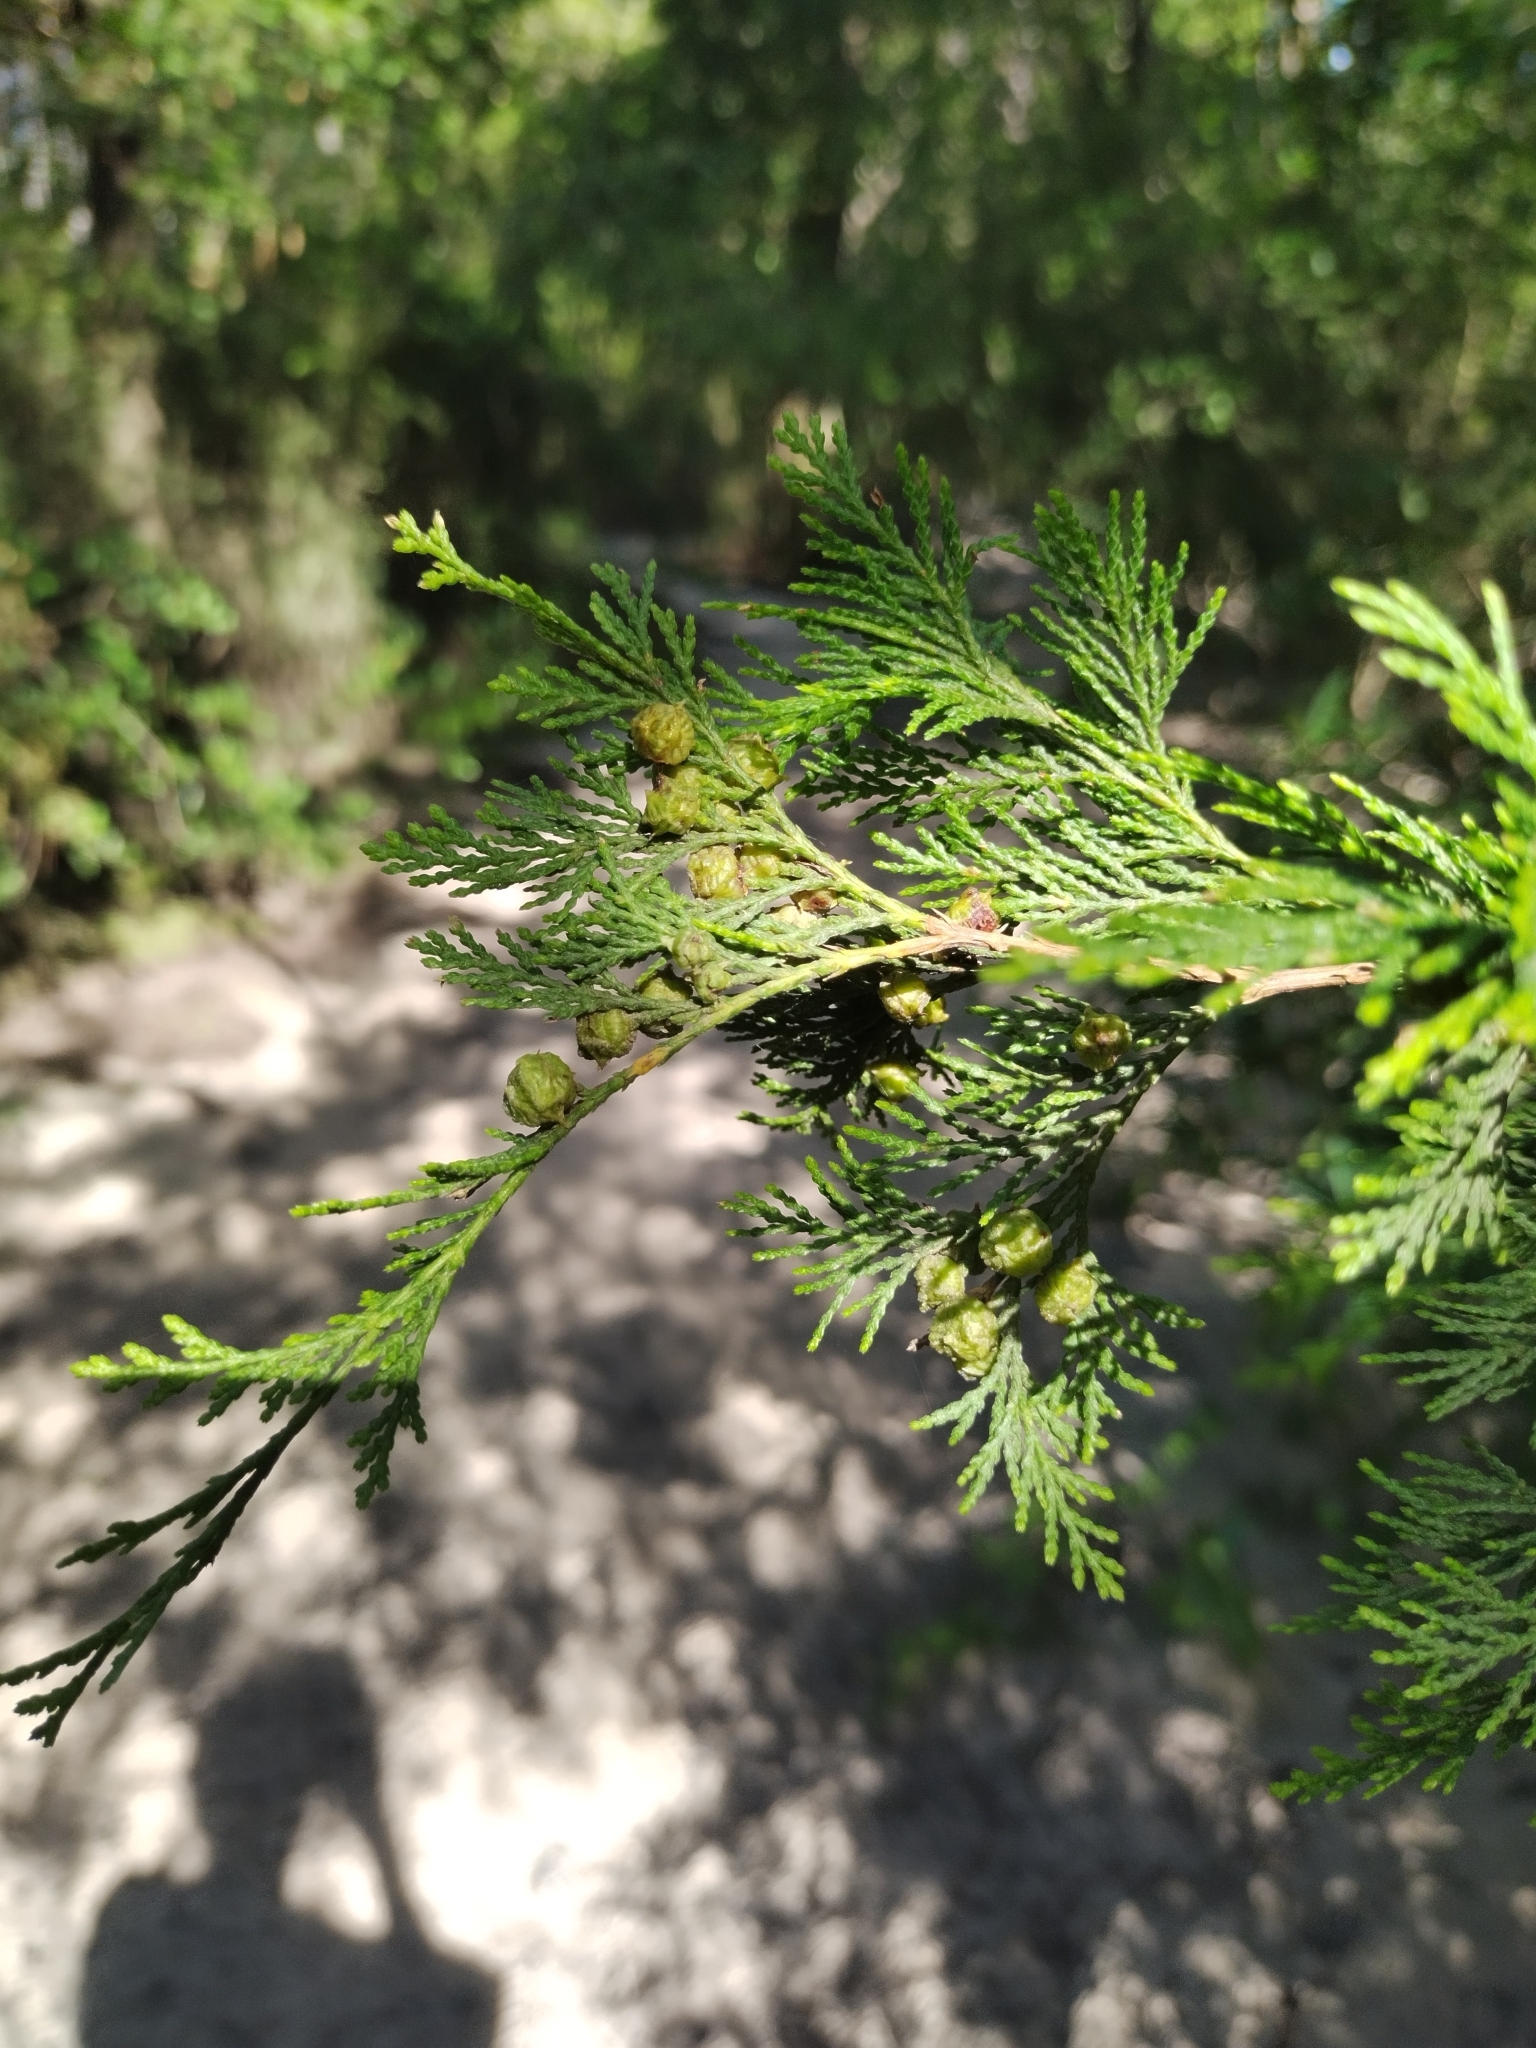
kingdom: Plantae
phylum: Tracheophyta
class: Pinopsida
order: Pinales
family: Cupressaceae
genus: Chamaecyparis
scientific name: Chamaecyparis thyoides
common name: Atlantic white cedar
